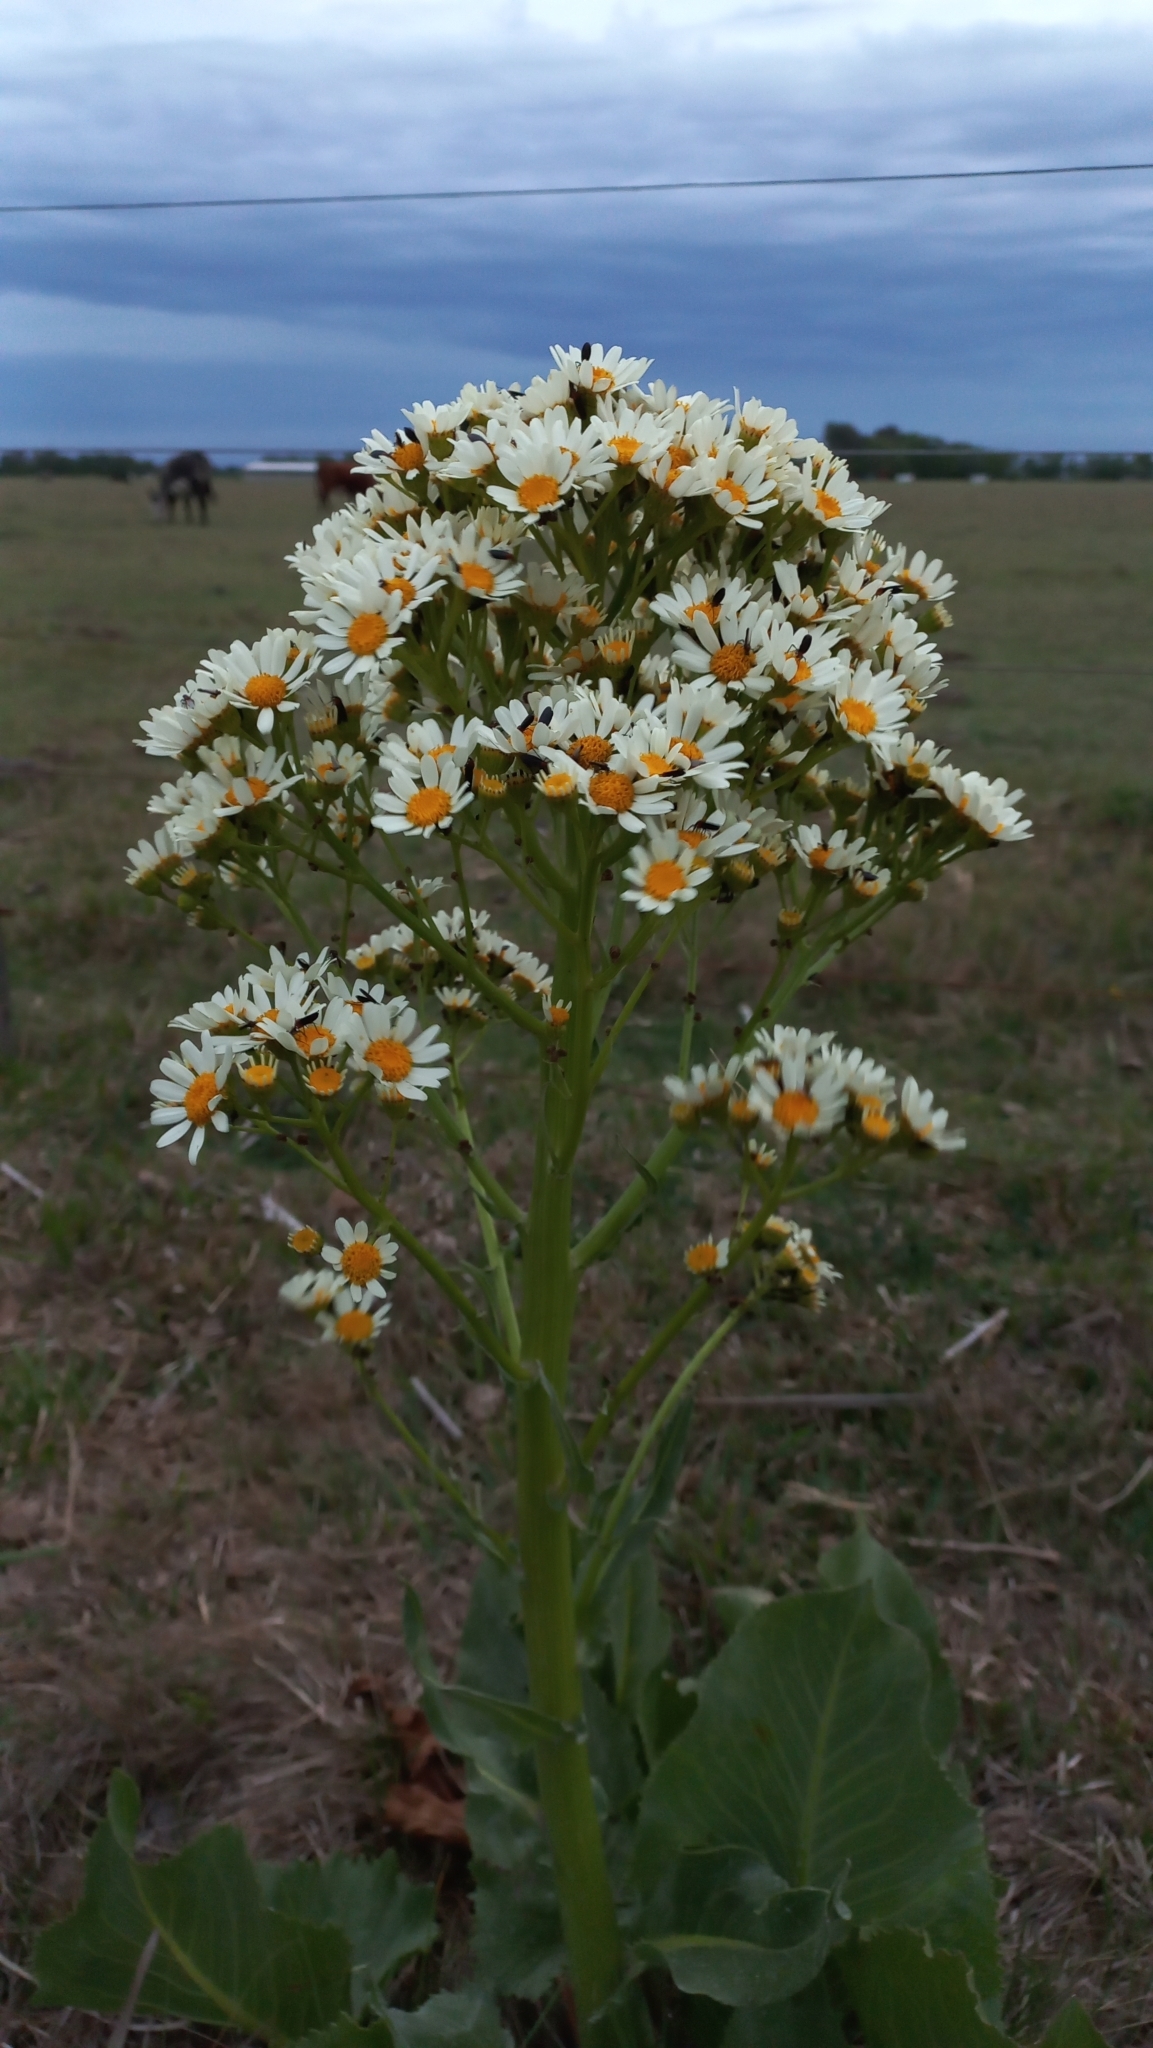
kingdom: Plantae
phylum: Tracheophyta
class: Magnoliopsida
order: Asterales
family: Asteraceae
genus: Senecio
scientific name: Senecio bonariensis
